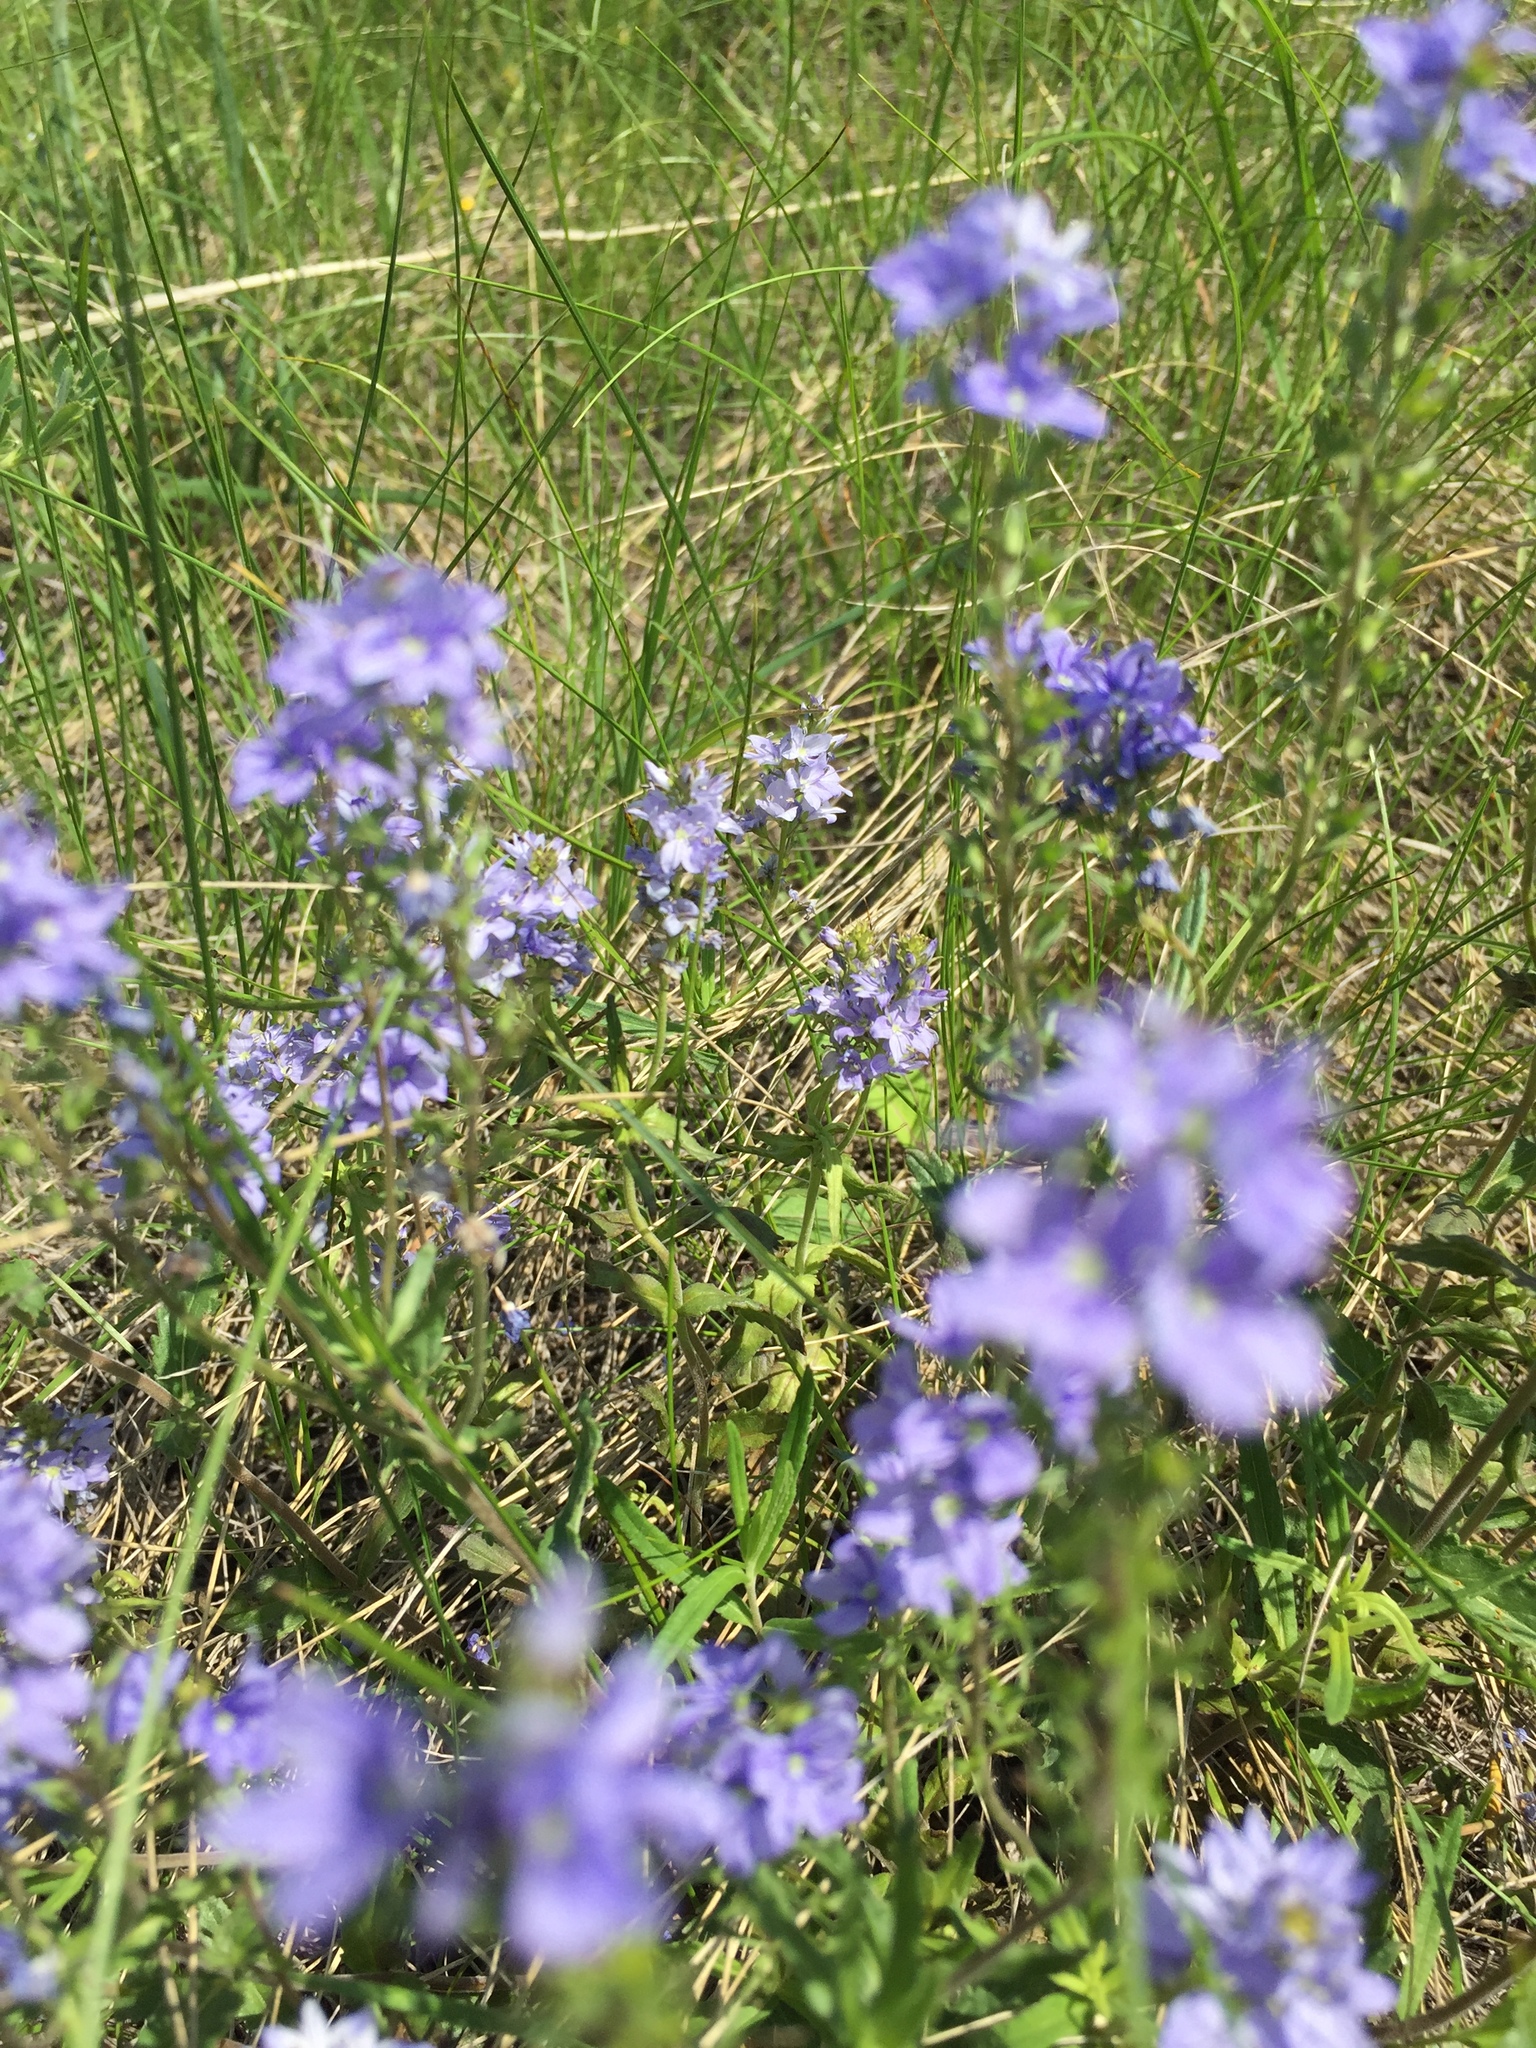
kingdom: Plantae
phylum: Tracheophyta
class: Magnoliopsida
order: Lamiales
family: Plantaginaceae
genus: Veronica
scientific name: Veronica prostrata
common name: Prostrate speedwell
